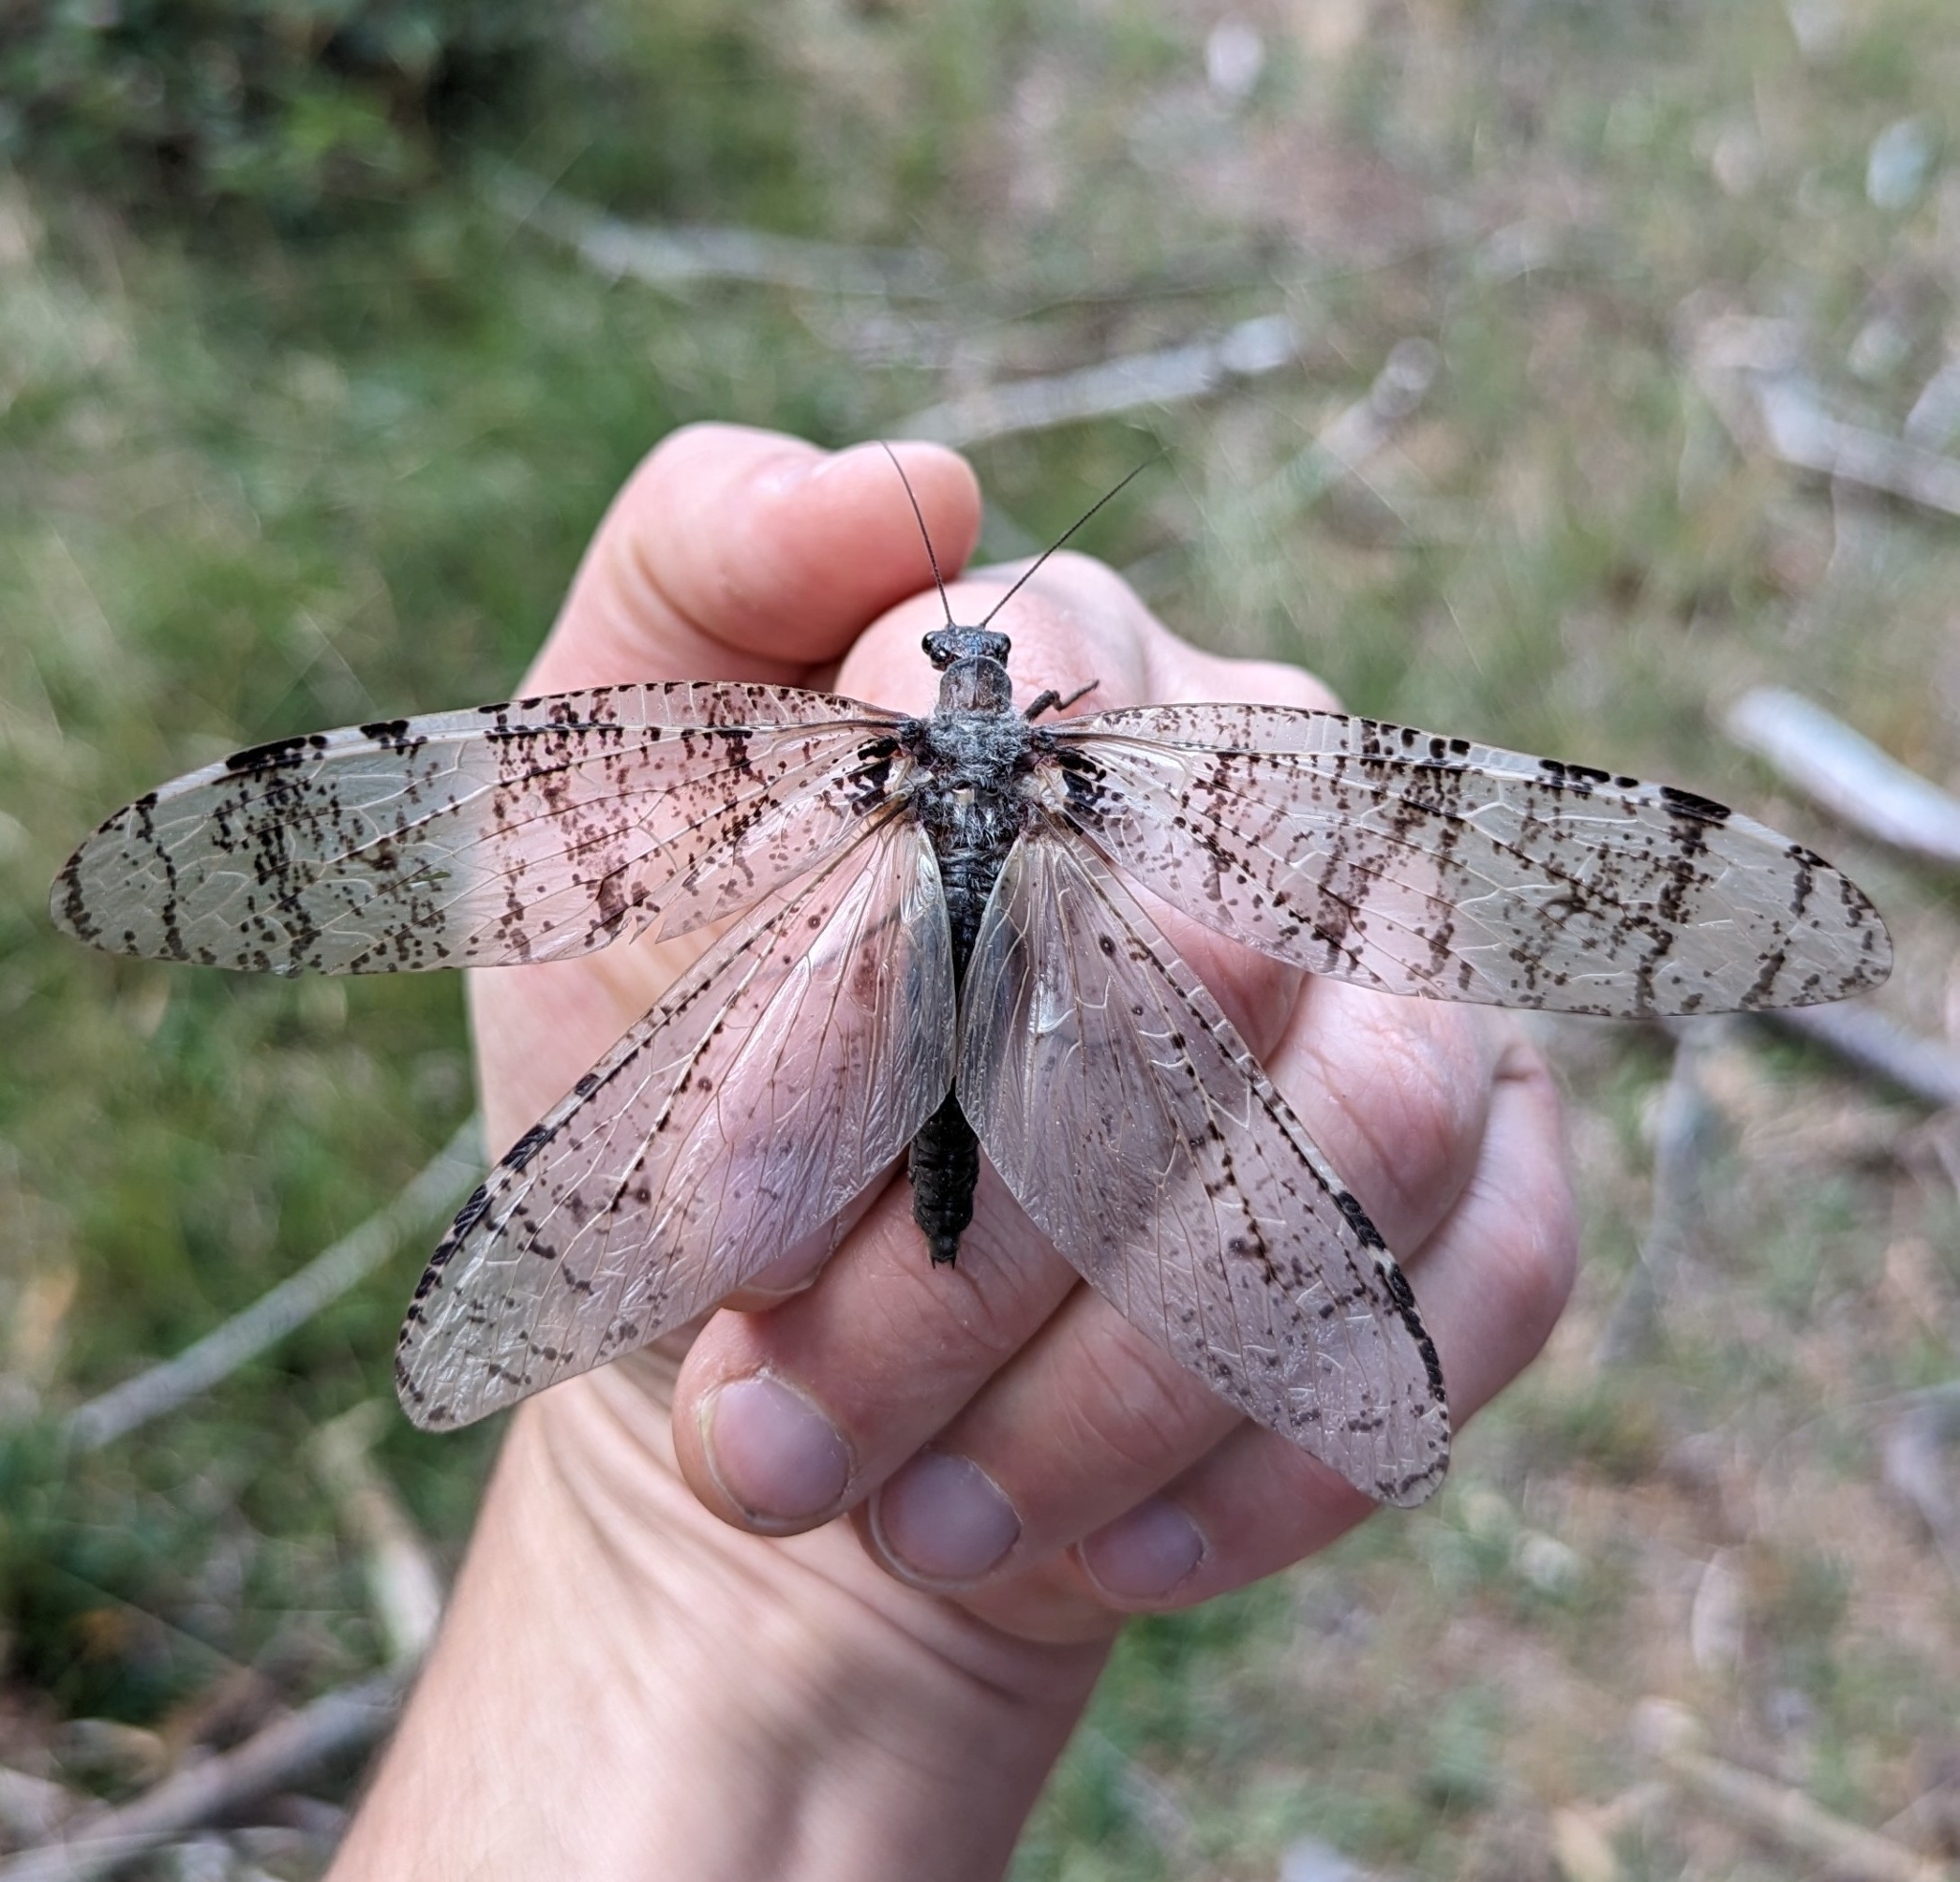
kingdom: Animalia
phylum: Arthropoda
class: Insecta
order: Megaloptera
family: Corydalidae
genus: Dysmicohermes
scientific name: Dysmicohermes disjunctus
